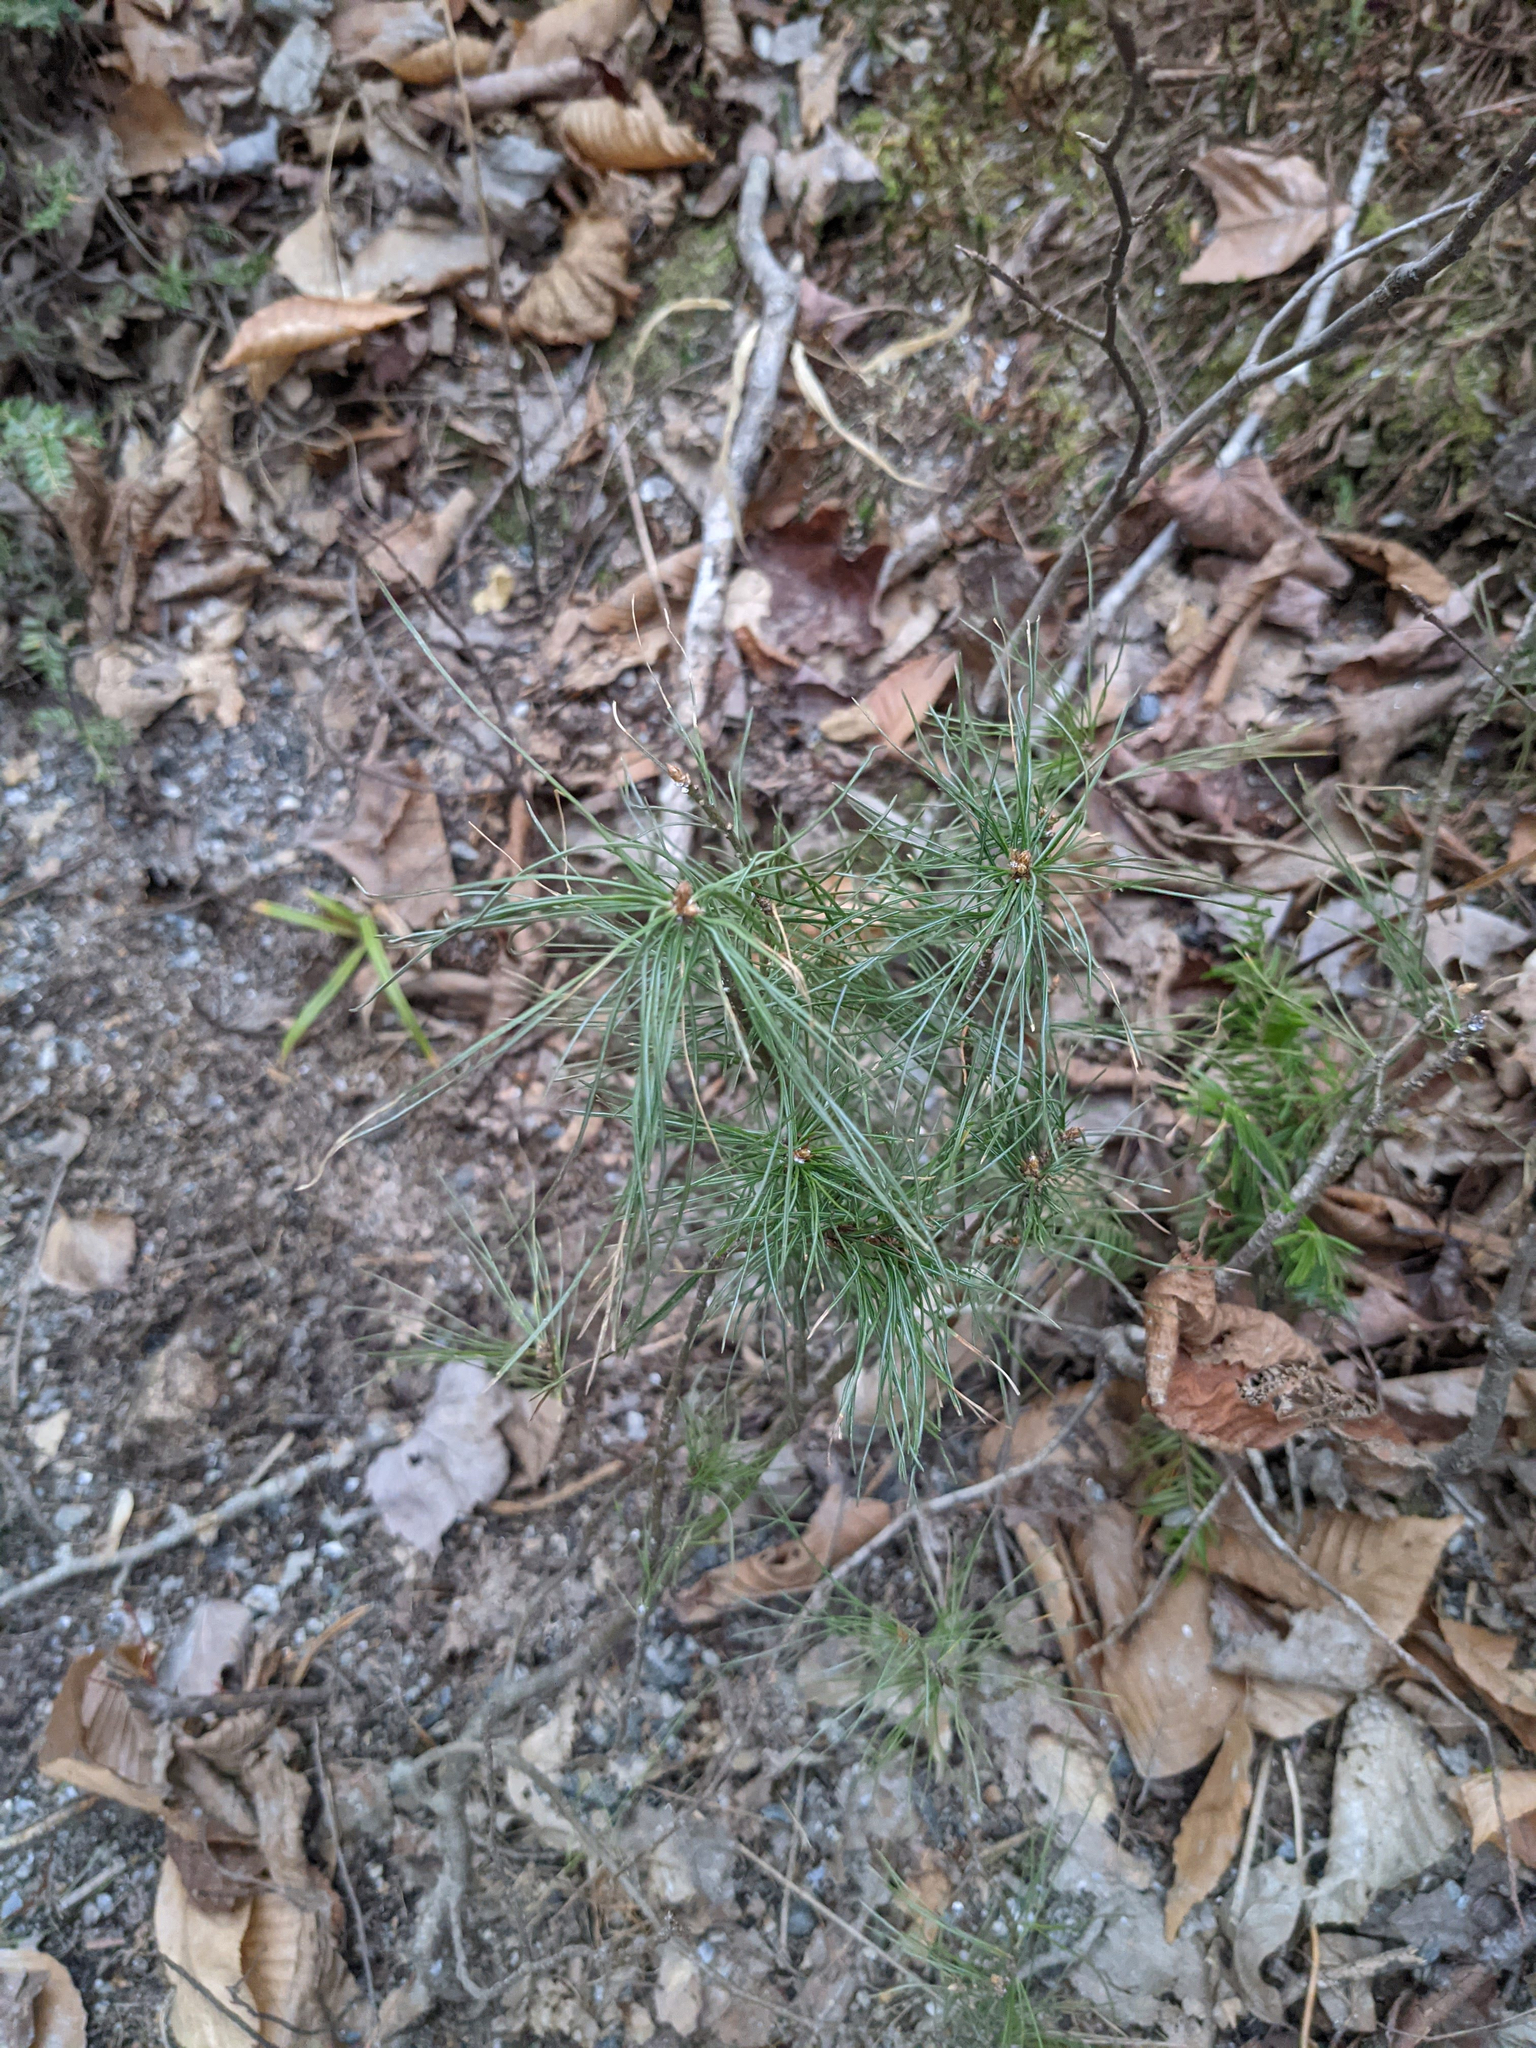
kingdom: Plantae
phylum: Tracheophyta
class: Pinopsida
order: Pinales
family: Pinaceae
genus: Pinus
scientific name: Pinus strobus
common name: Weymouth pine
